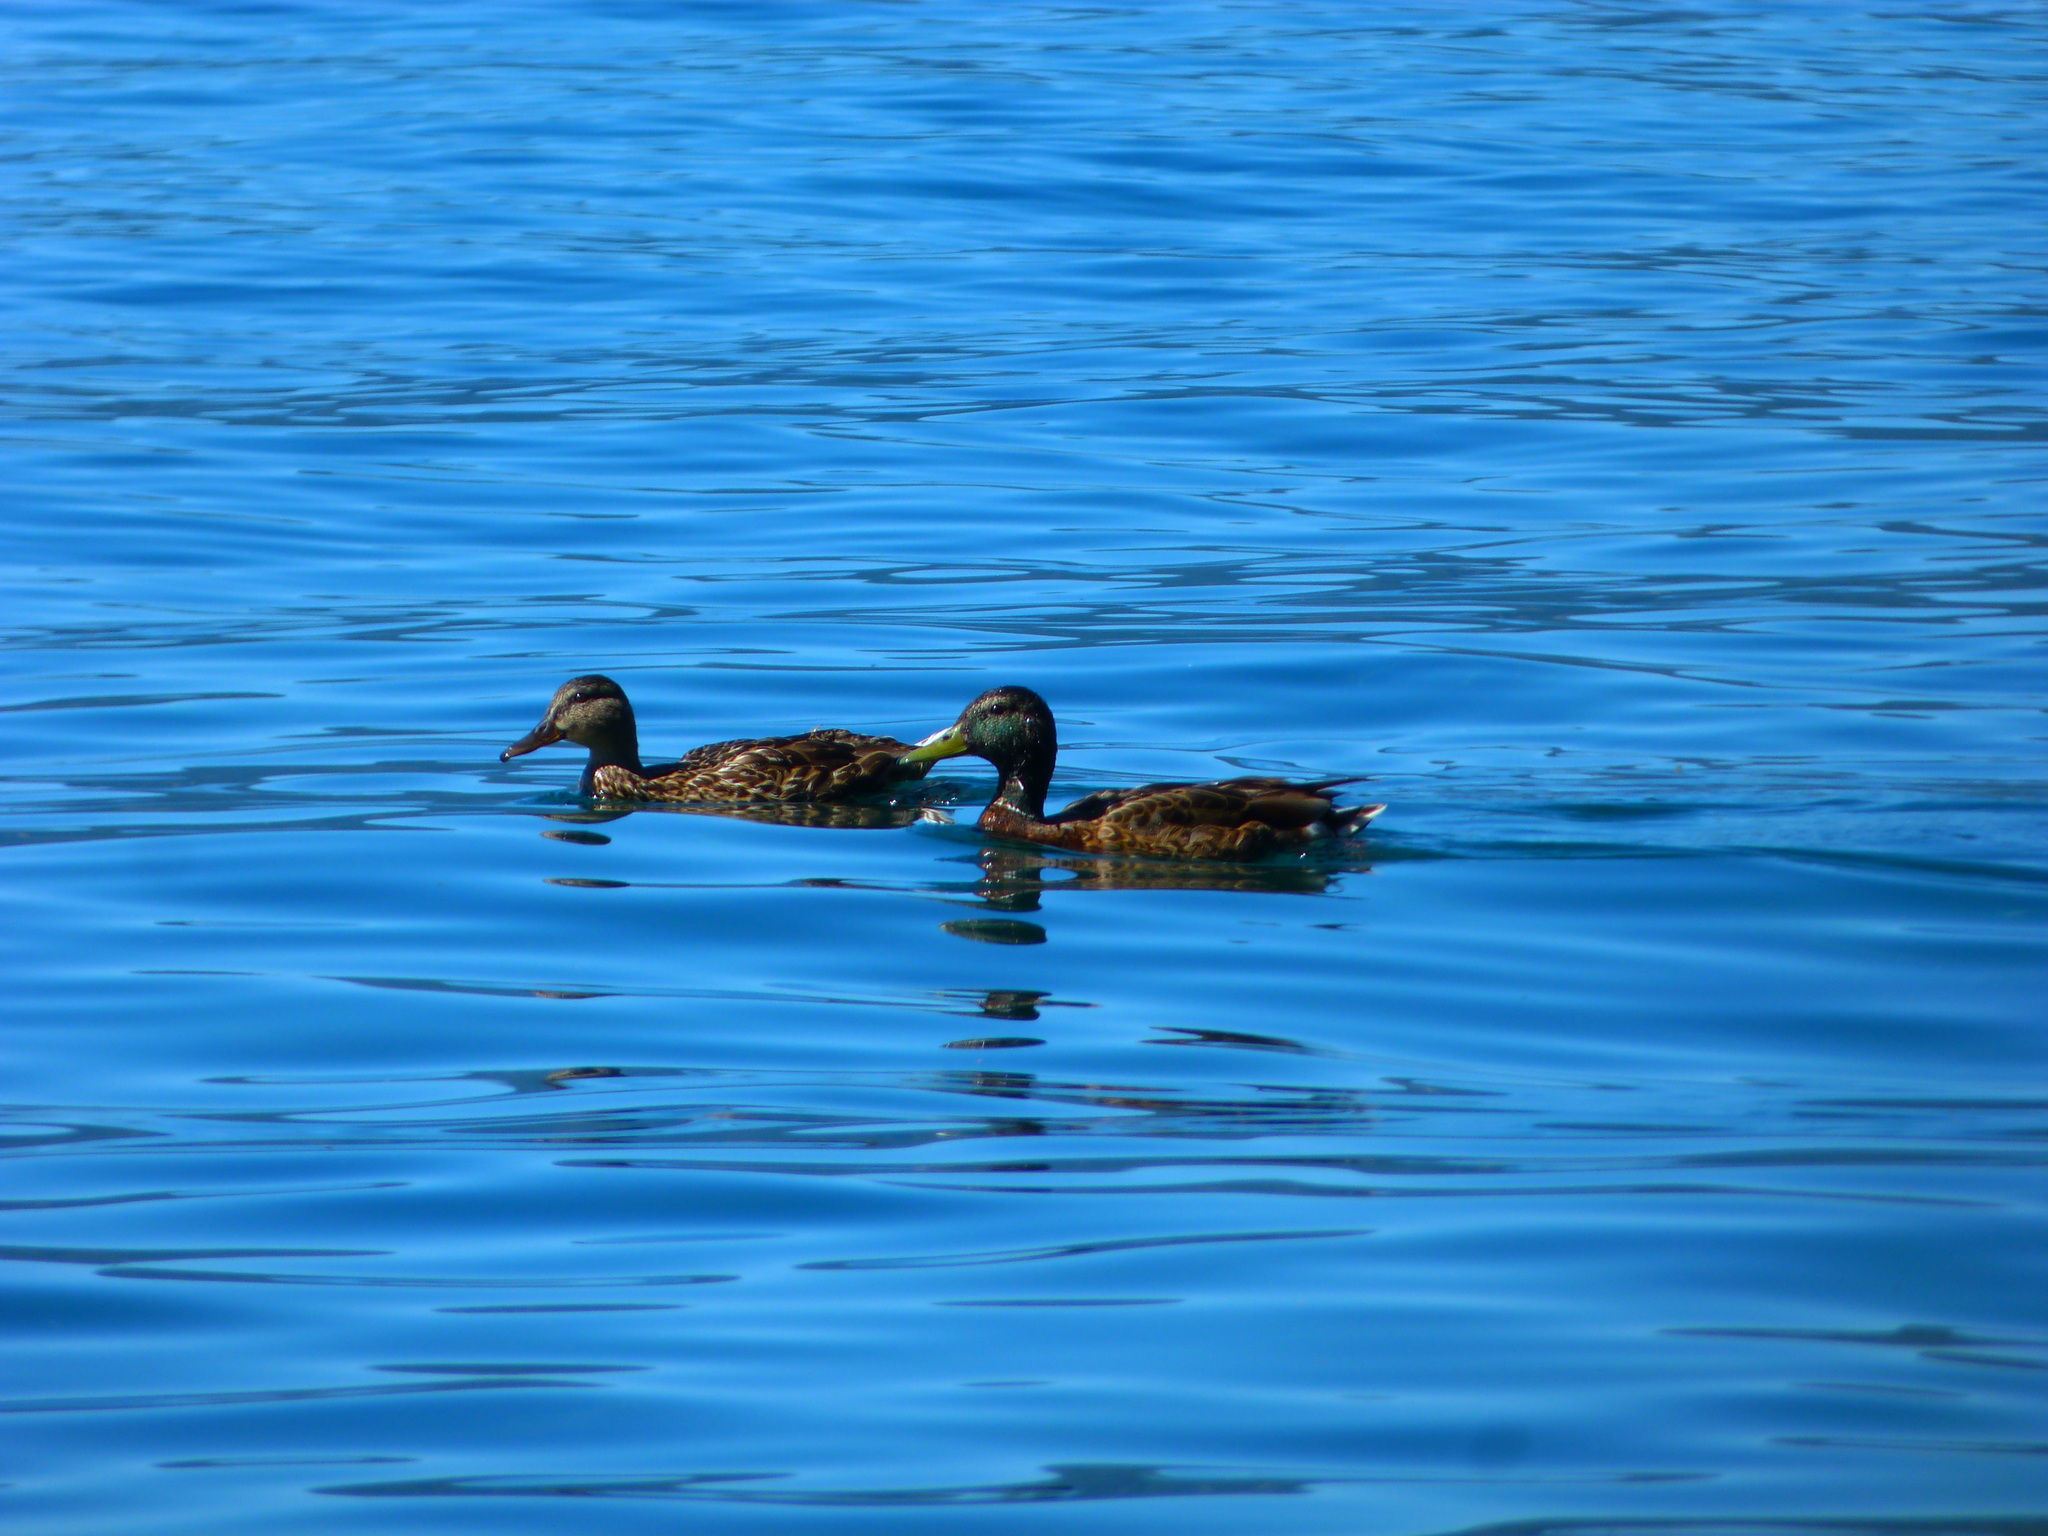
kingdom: Animalia
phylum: Chordata
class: Aves
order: Anseriformes
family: Anatidae
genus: Anas
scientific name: Anas platyrhynchos
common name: Mallard
